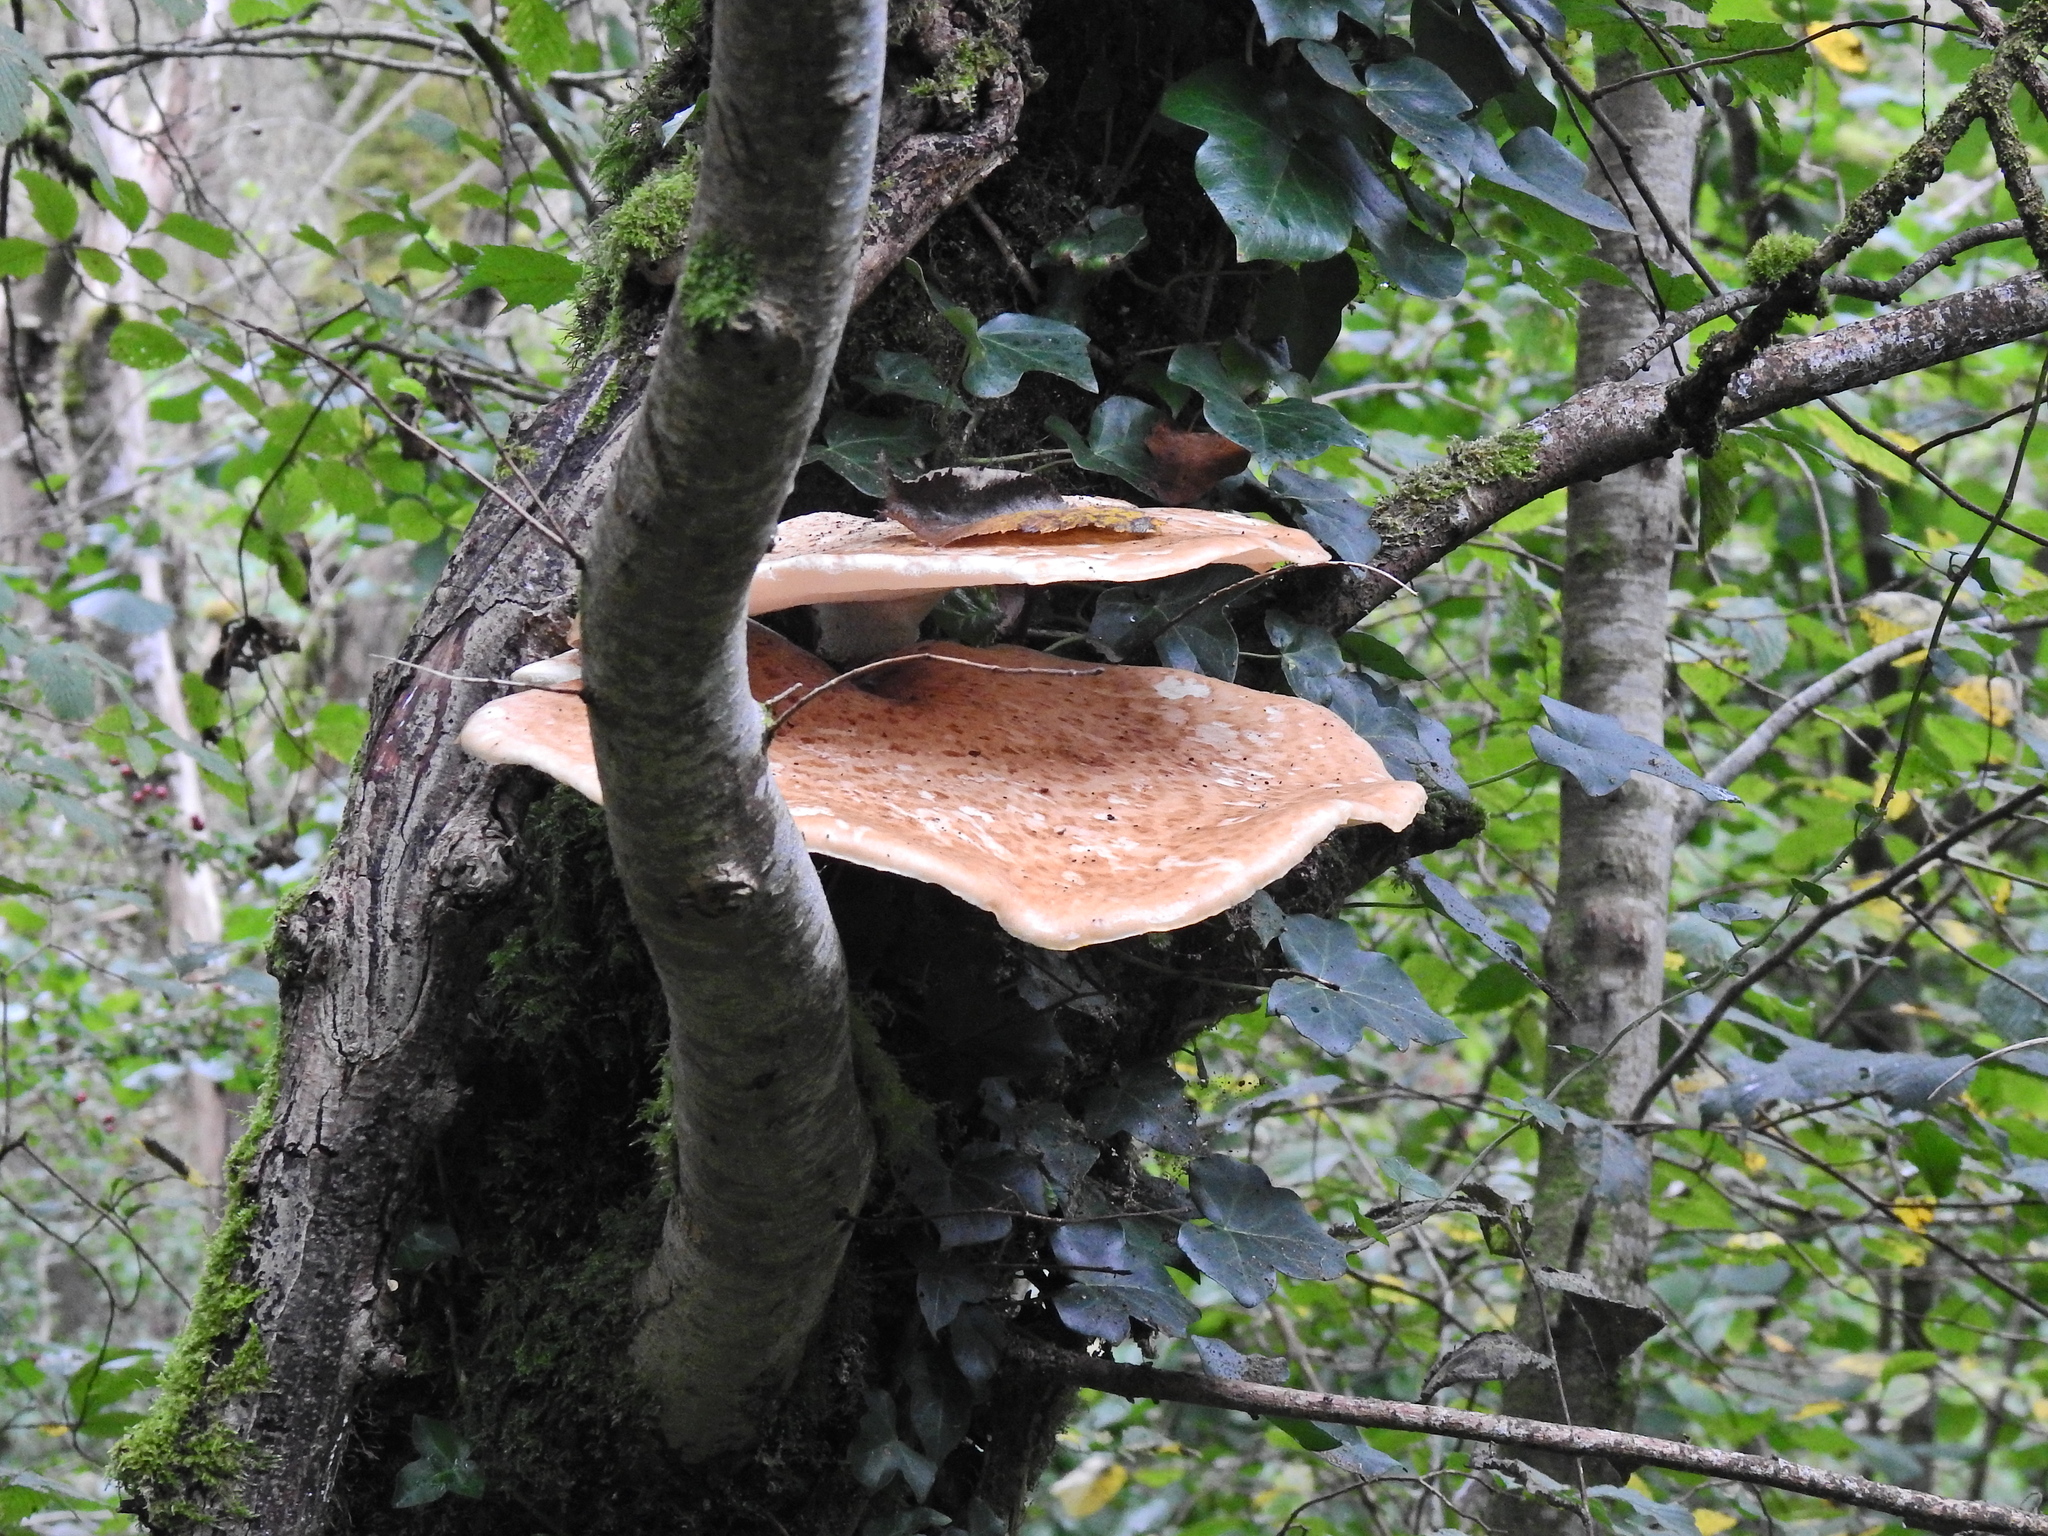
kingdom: Fungi
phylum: Basidiomycota
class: Agaricomycetes
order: Polyporales
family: Polyporaceae
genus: Cerioporus
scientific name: Cerioporus squamosus
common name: Dryad's saddle
